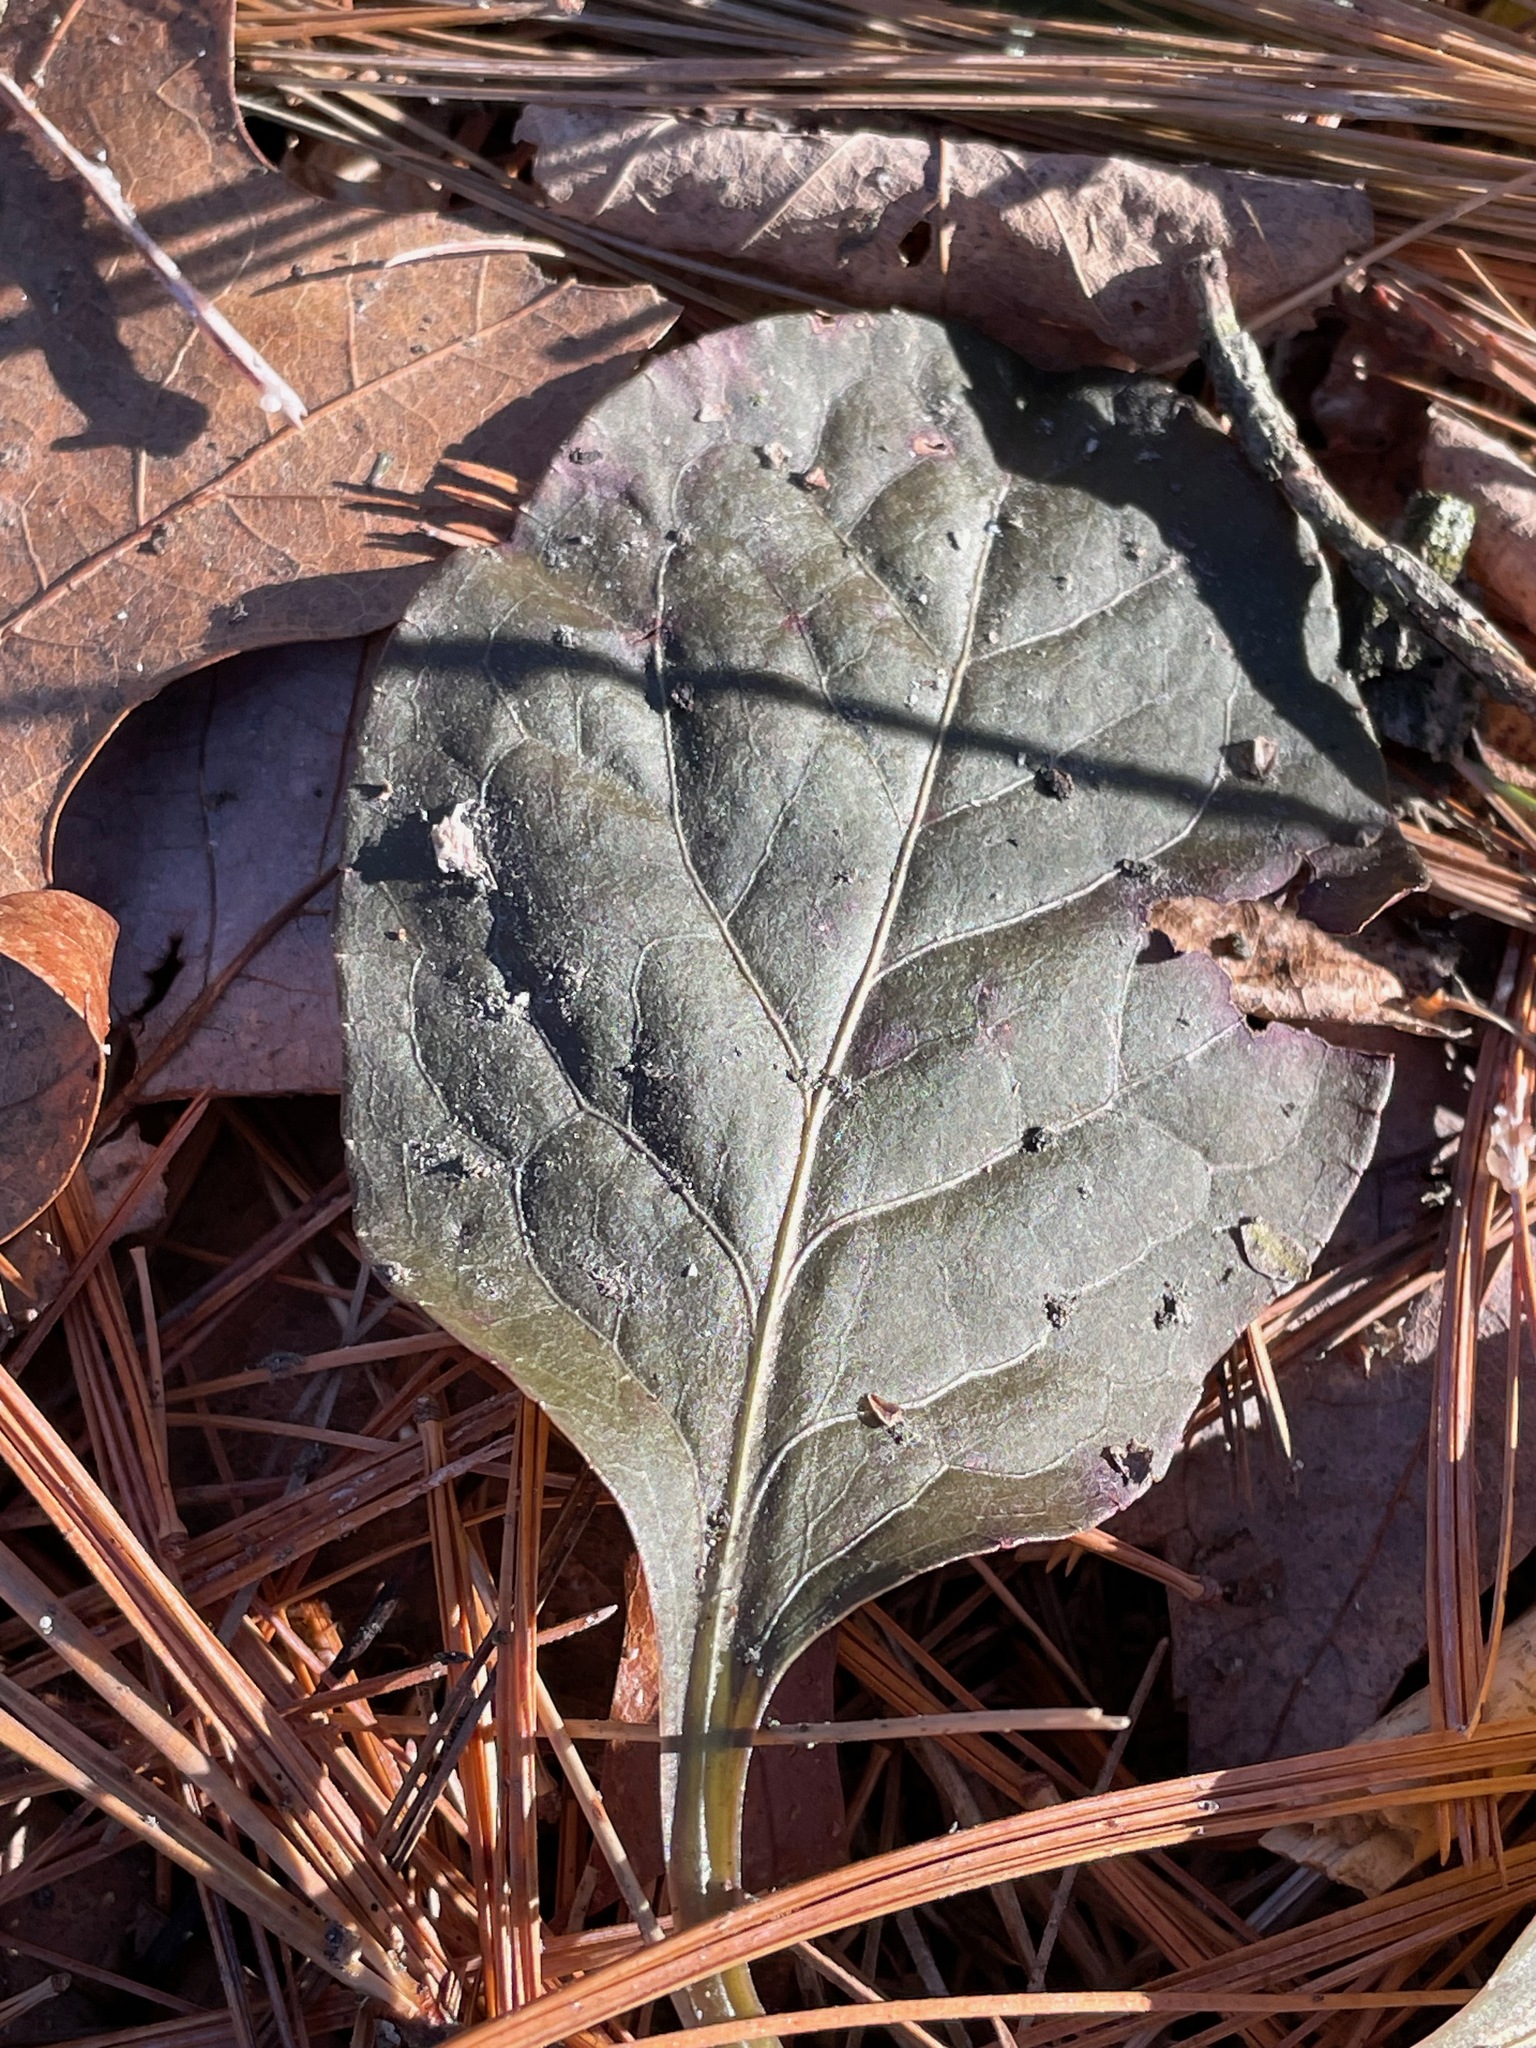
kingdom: Plantae
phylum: Tracheophyta
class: Magnoliopsida
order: Ericales
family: Ericaceae
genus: Pyrola
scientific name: Pyrola elliptica
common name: Shinleaf
